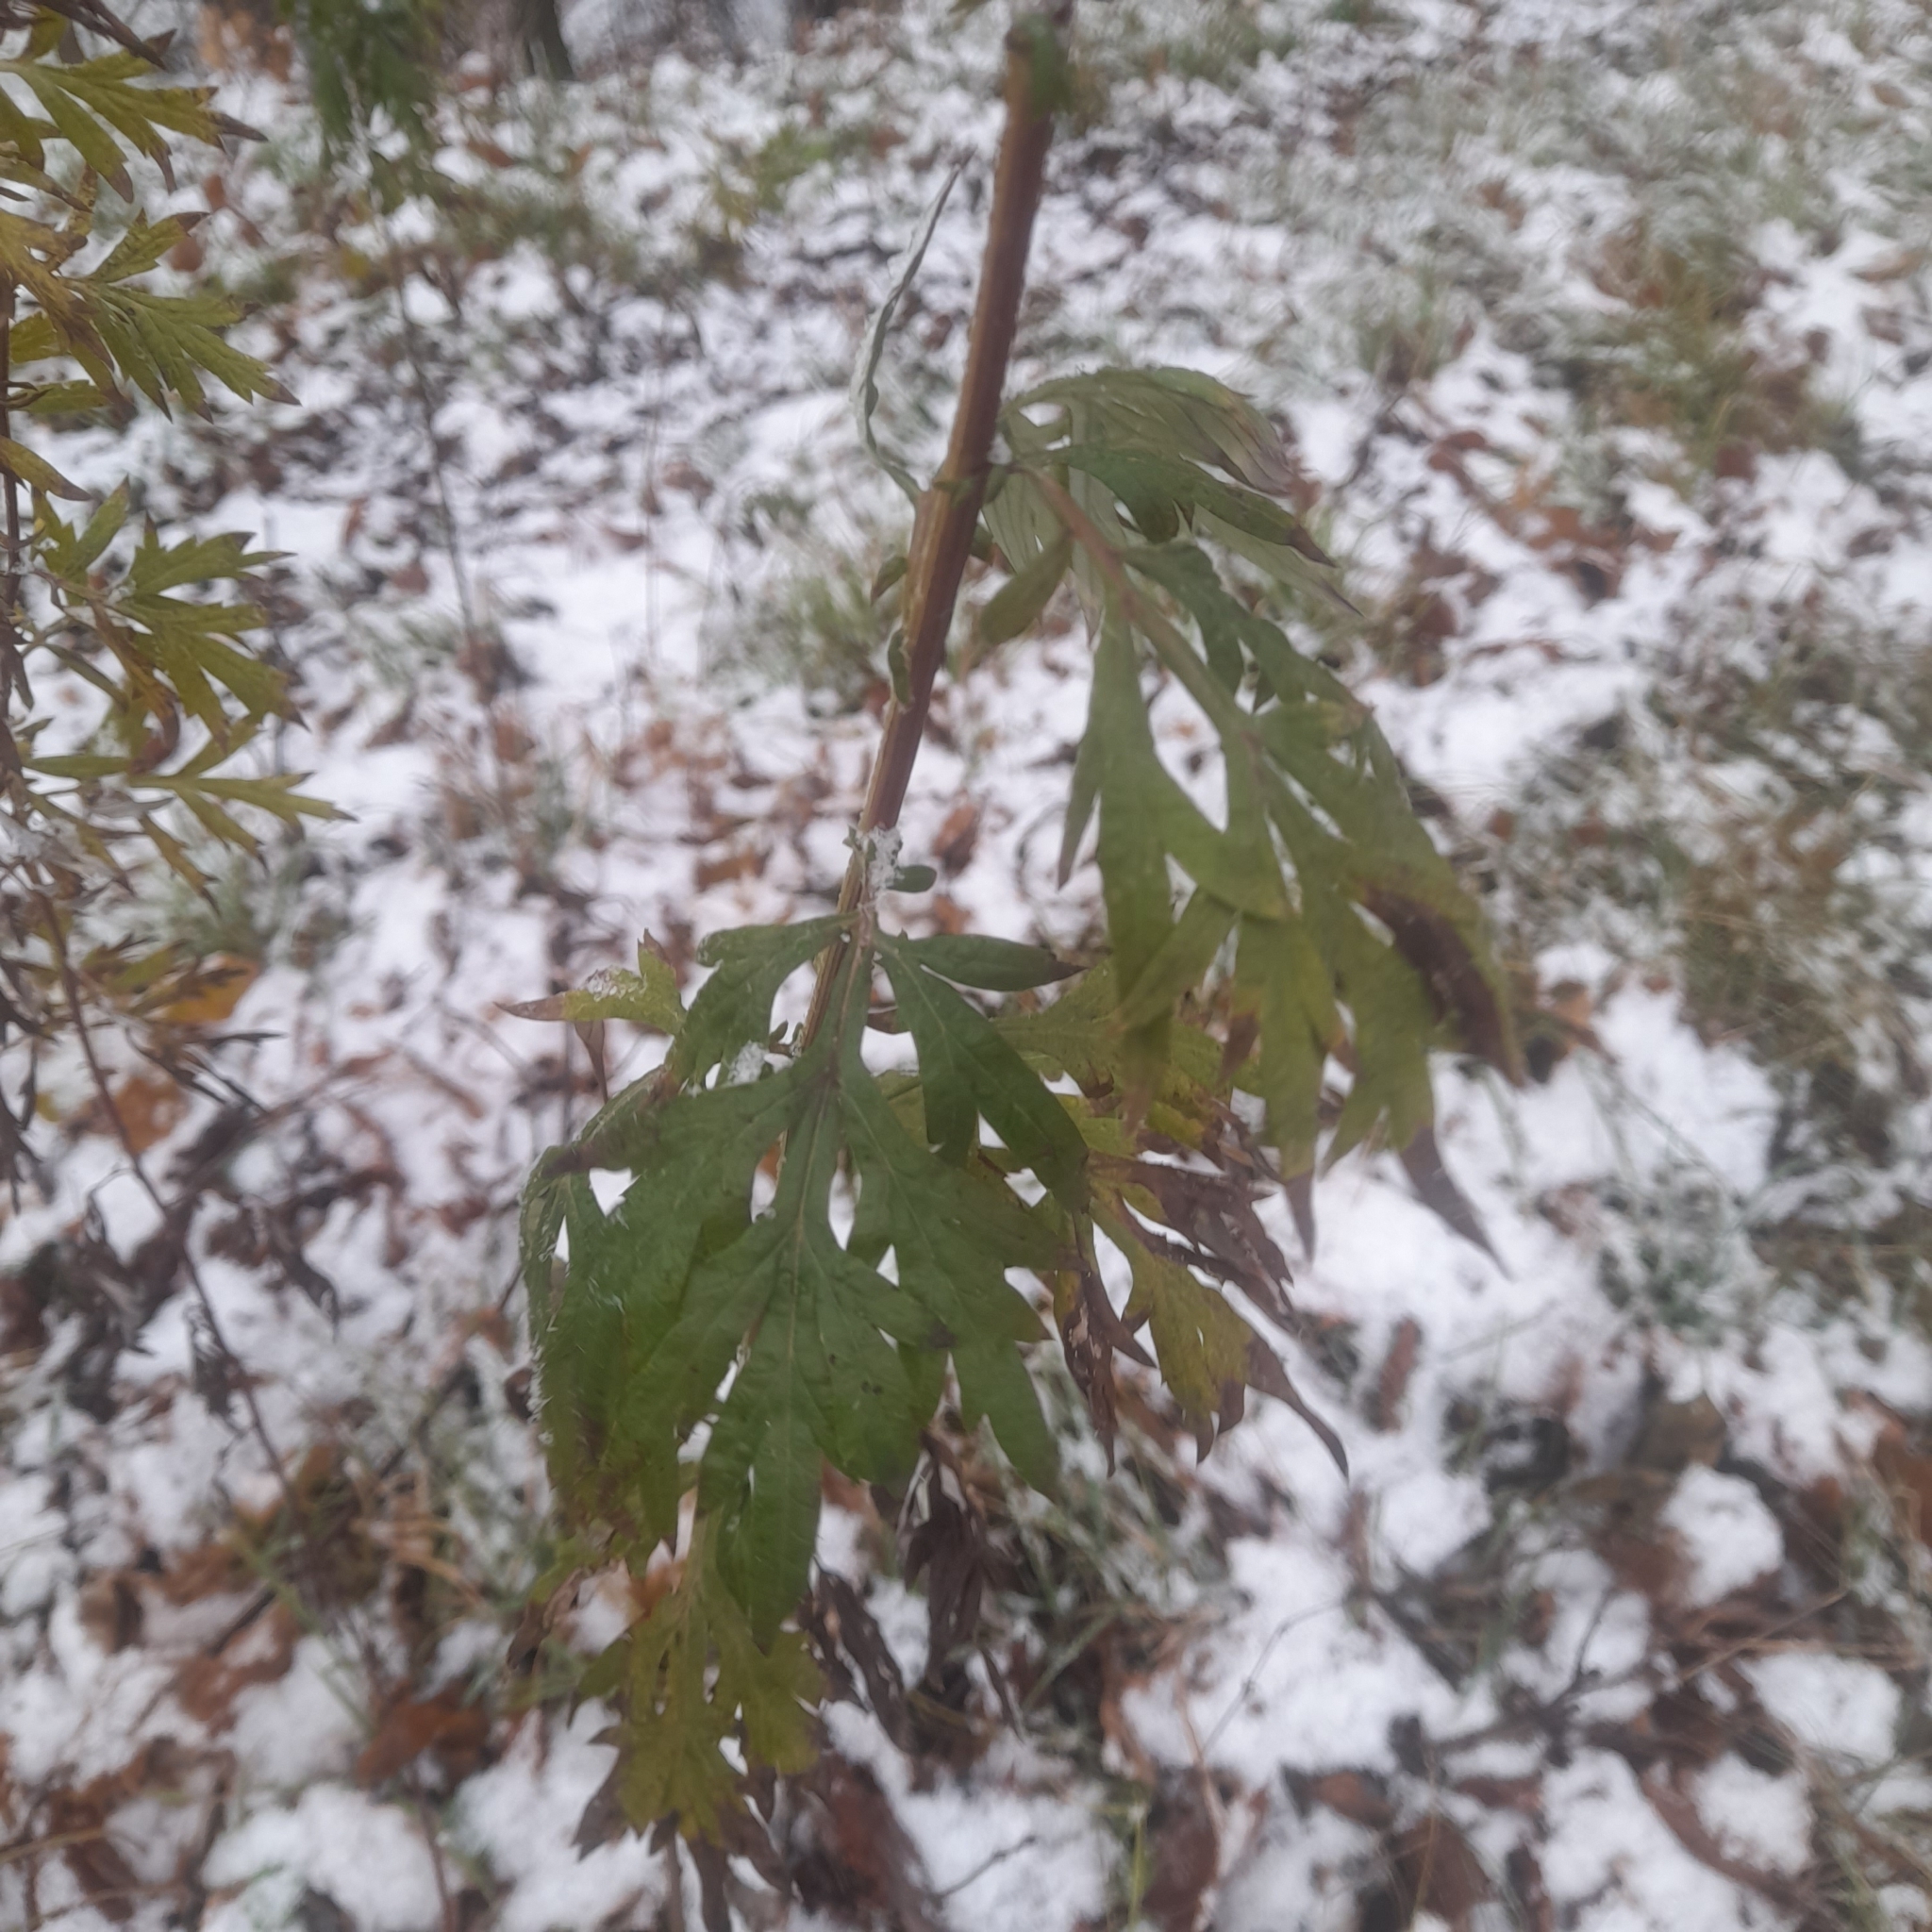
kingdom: Plantae
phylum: Tracheophyta
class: Magnoliopsida
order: Asterales
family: Asteraceae
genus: Artemisia
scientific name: Artemisia vulgaris
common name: Mugwort
